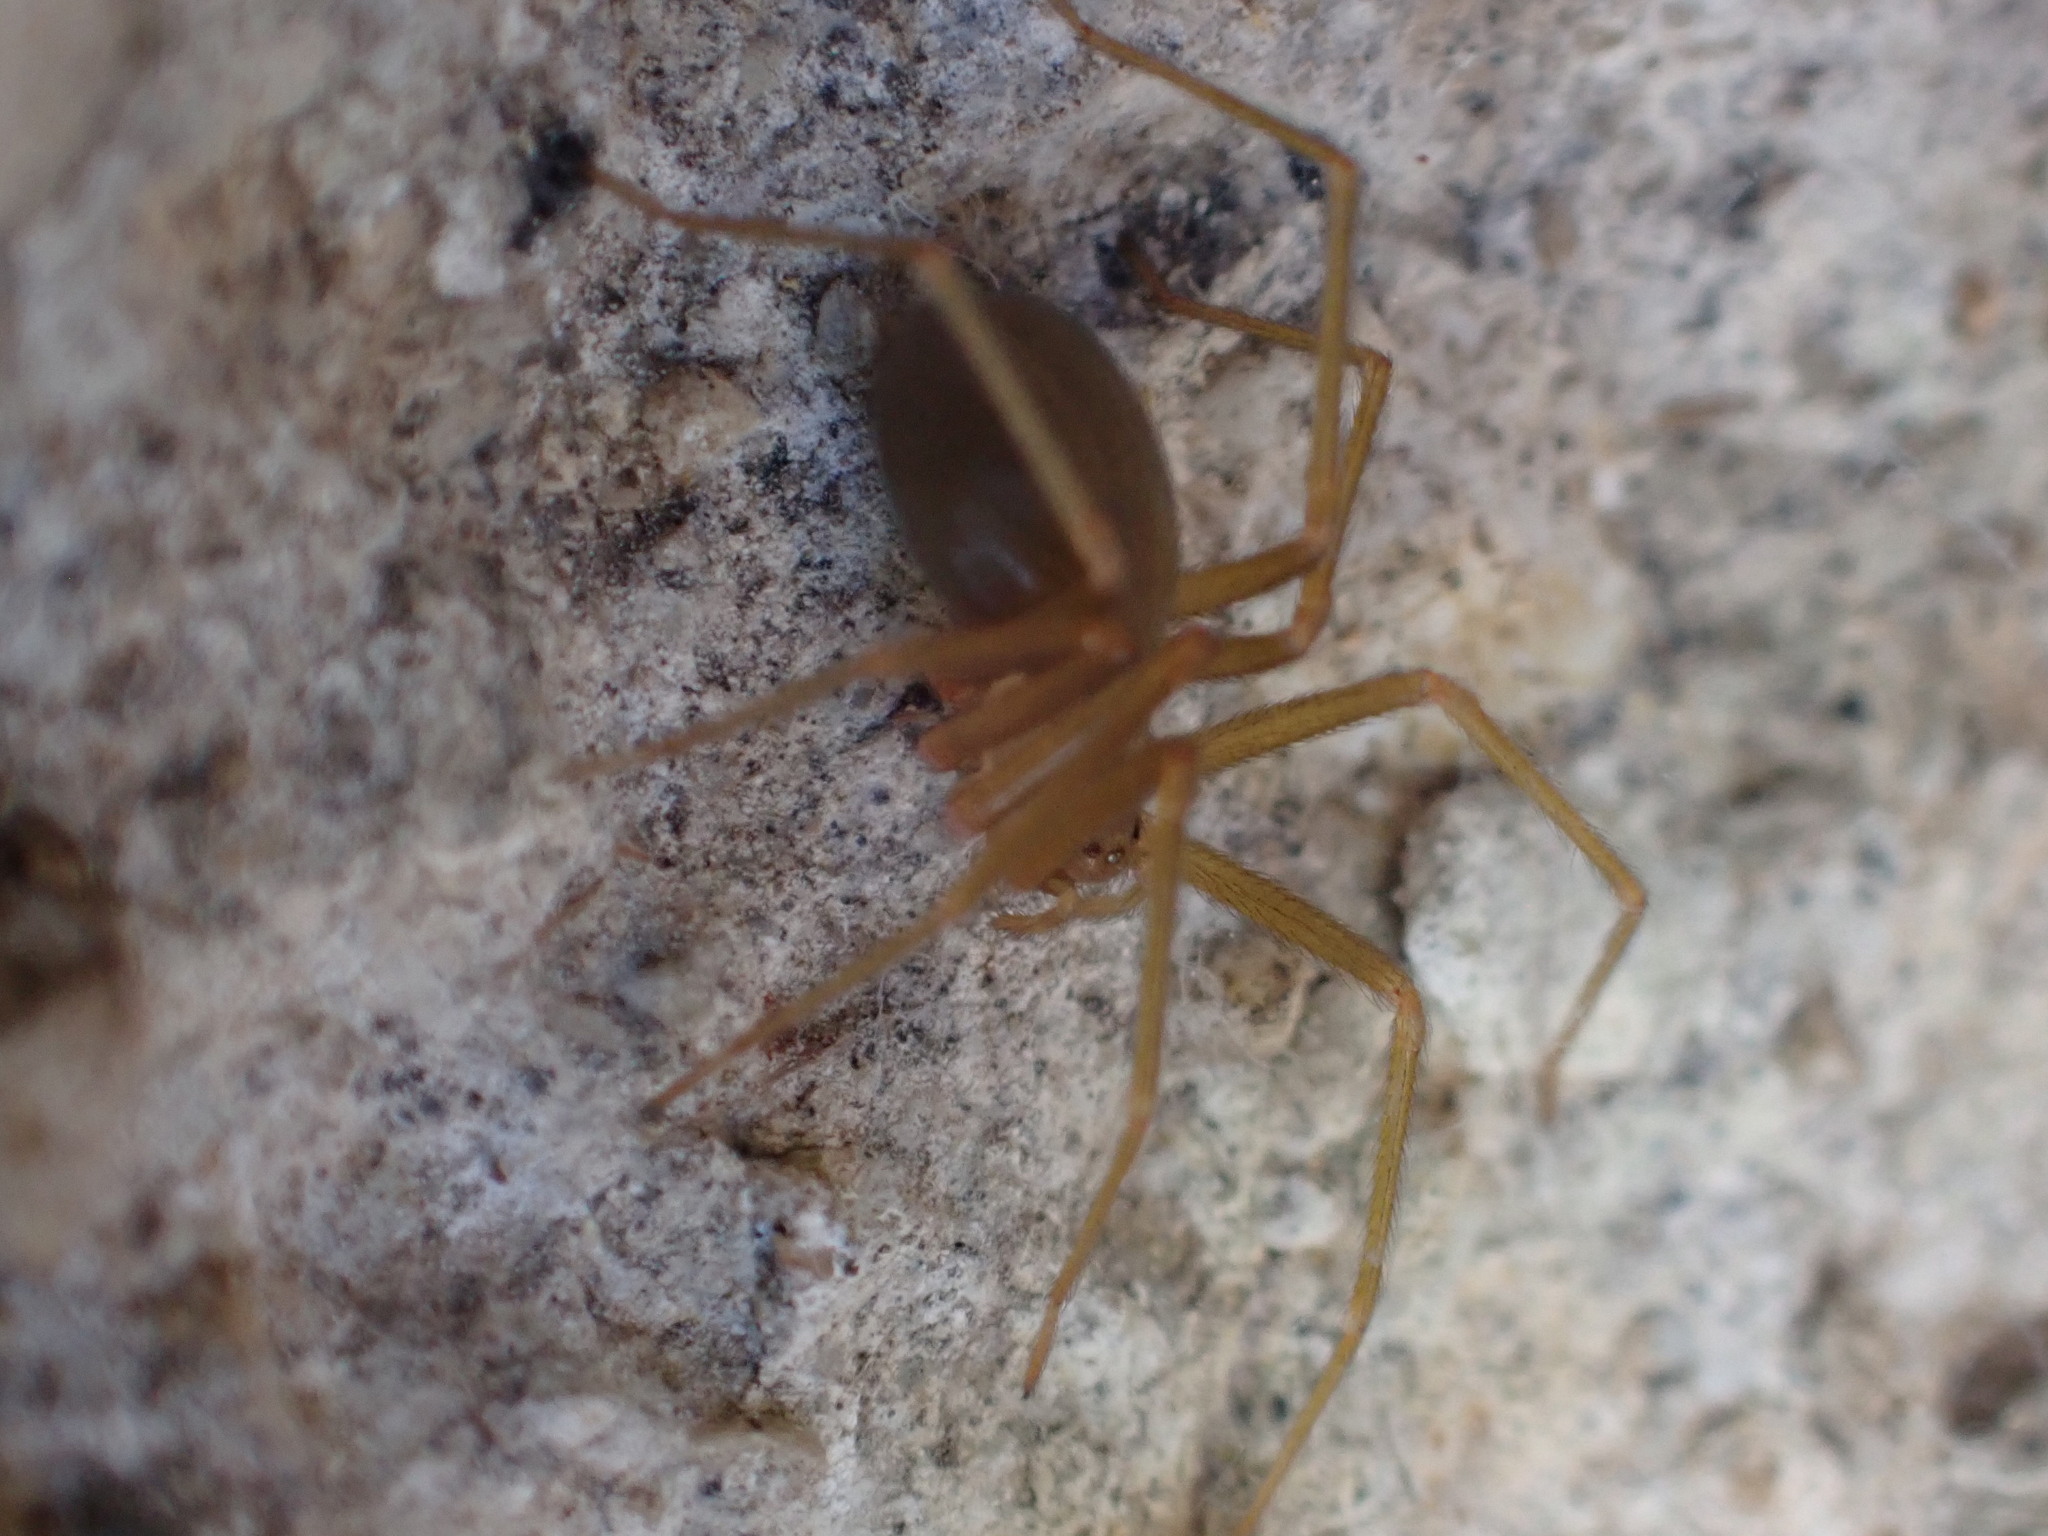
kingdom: Animalia
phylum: Arthropoda
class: Arachnida
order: Araneae
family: Sicariidae
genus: Loxosceles
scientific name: Loxosceles rufescens
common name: Mediterranean recluse spider
